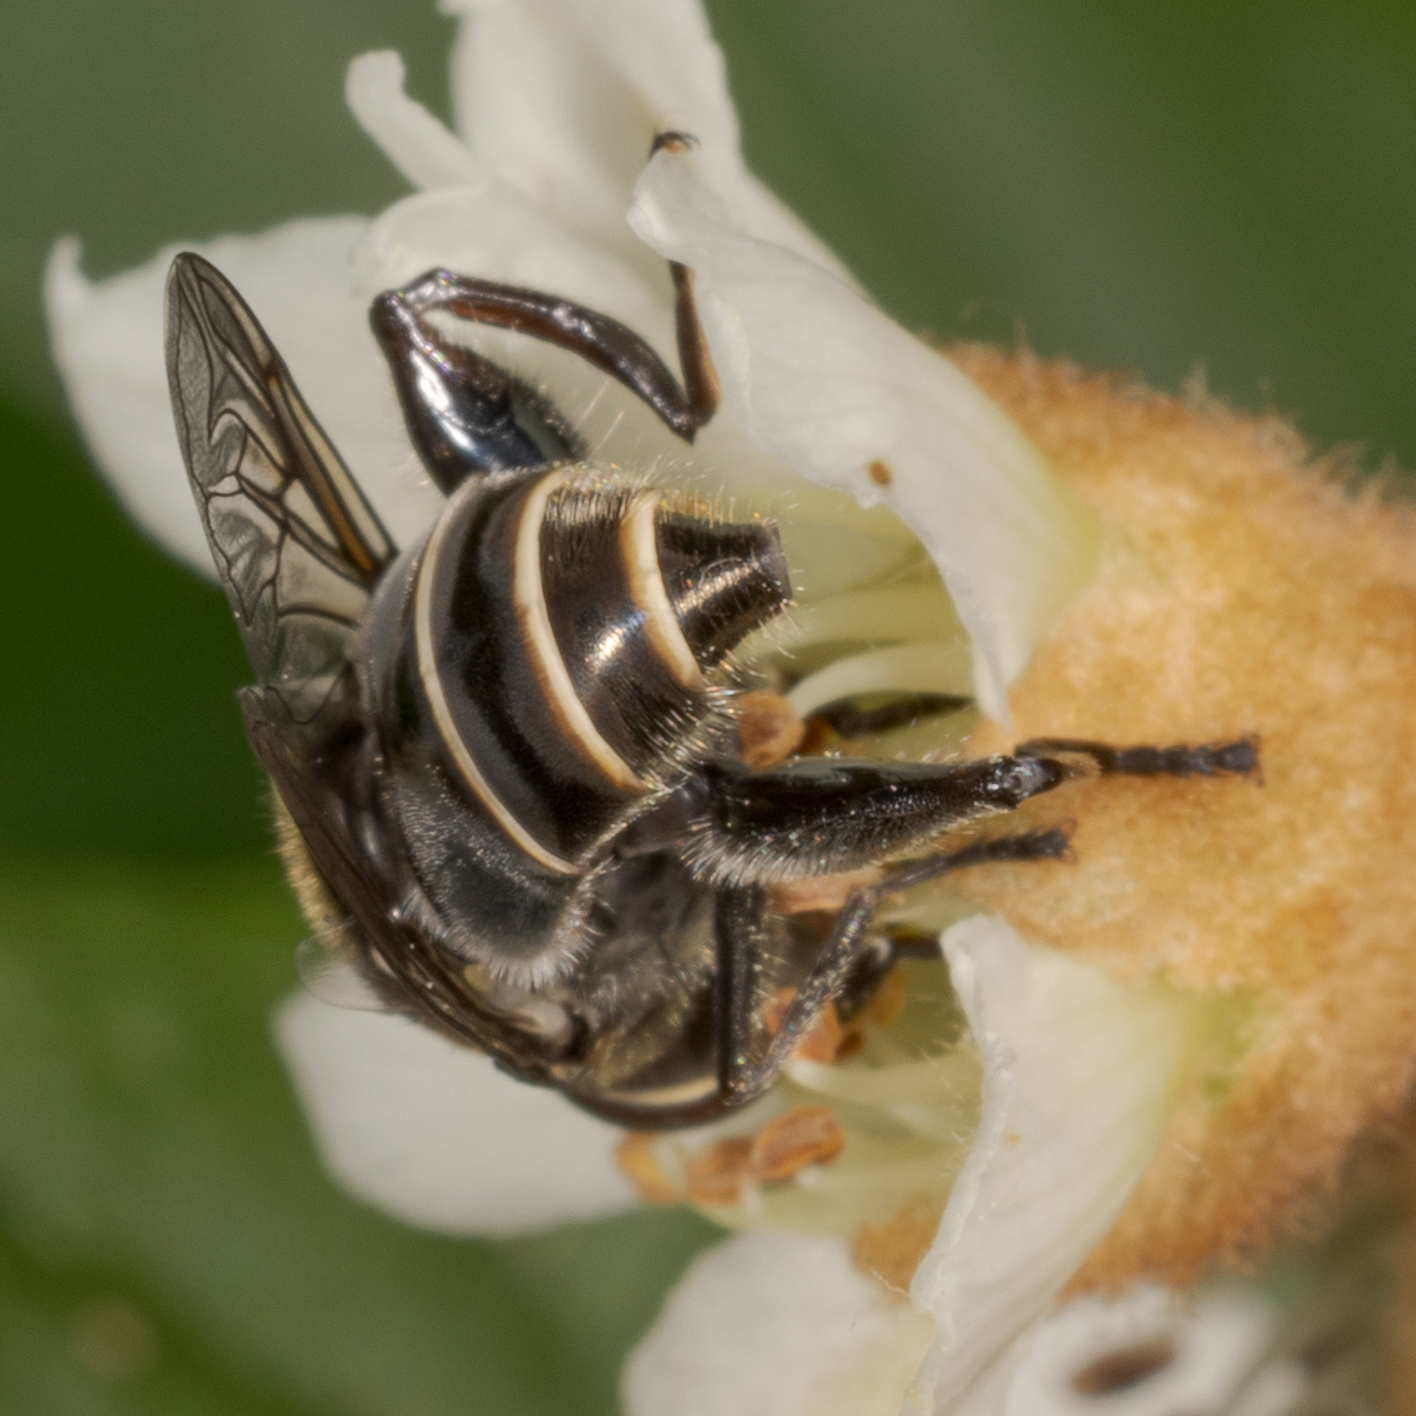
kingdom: Animalia
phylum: Arthropoda
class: Insecta
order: Diptera
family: Syrphidae
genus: Palpada
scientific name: Palpada furcata
